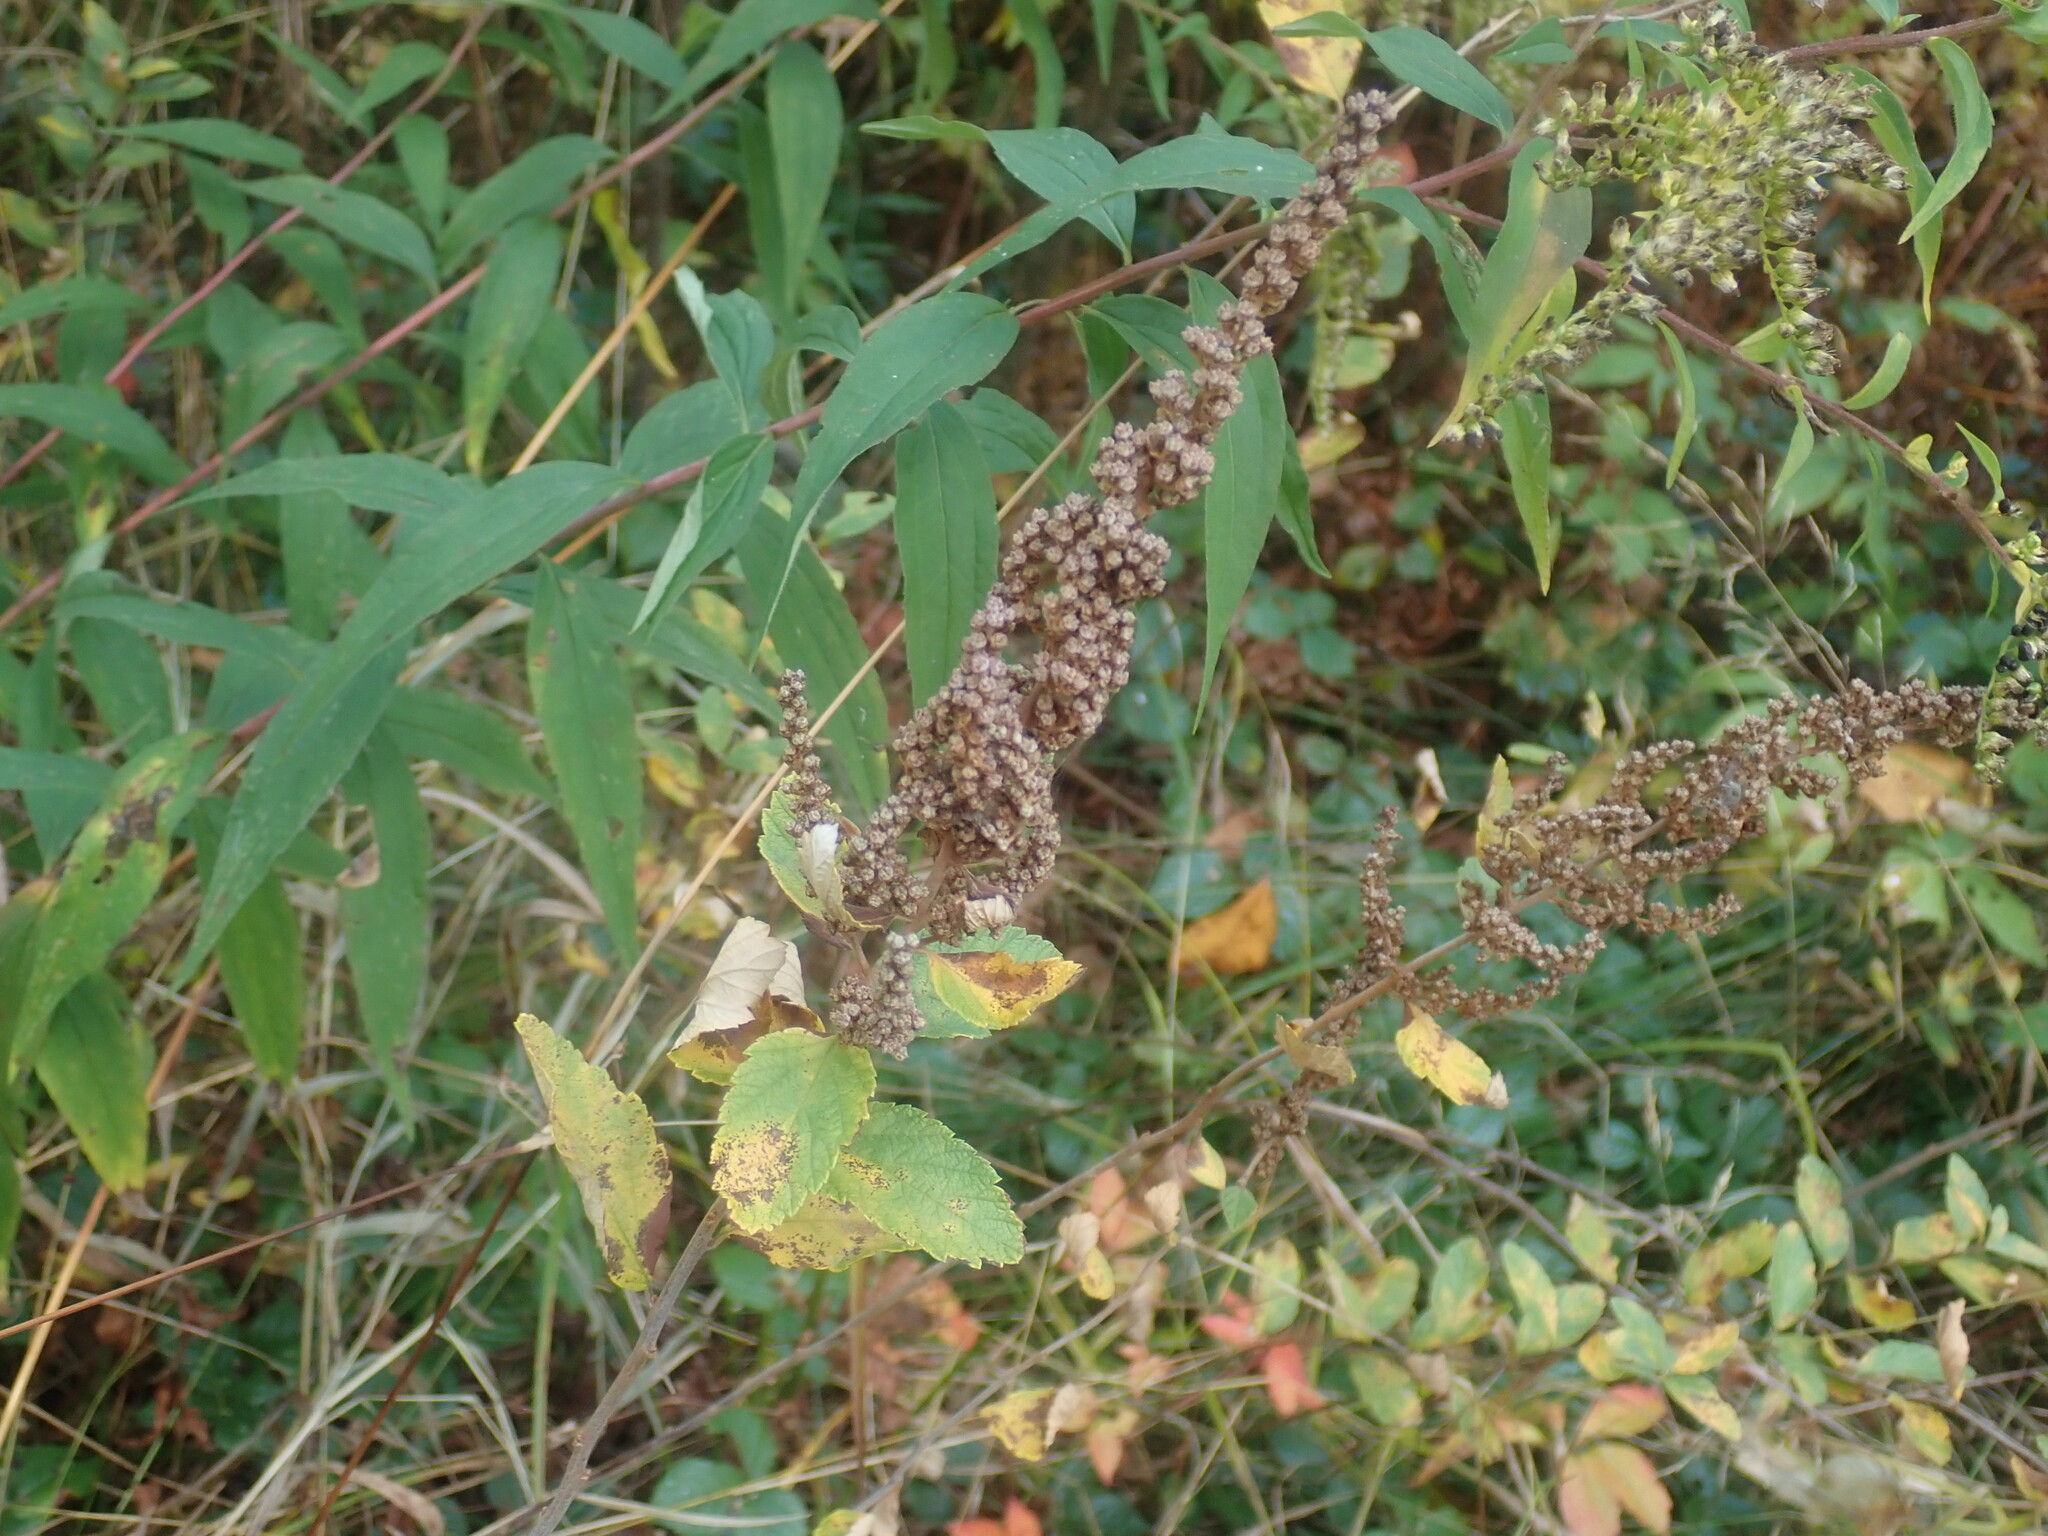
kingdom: Plantae
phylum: Tracheophyta
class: Magnoliopsida
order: Rosales
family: Rosaceae
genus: Spiraea
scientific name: Spiraea tomentosa
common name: Hardhack
